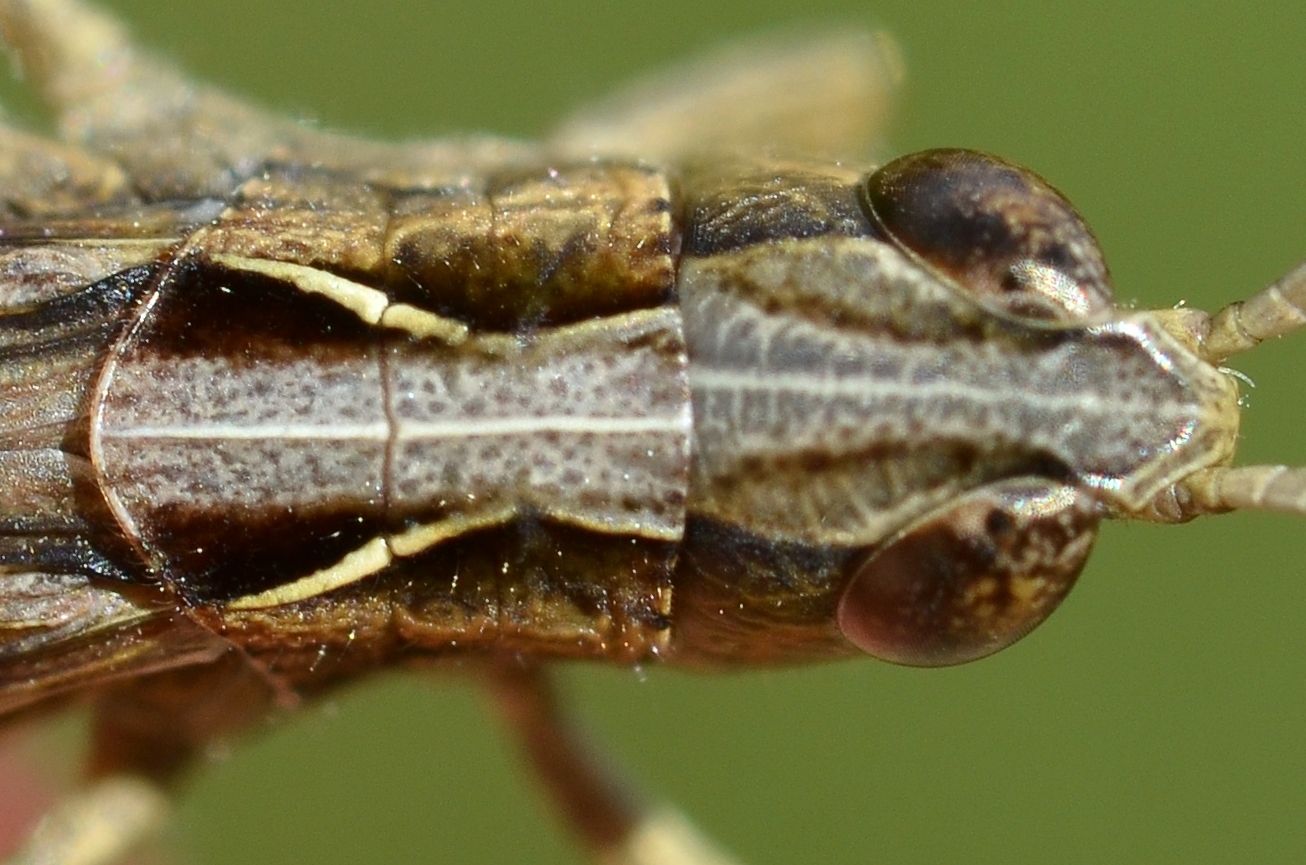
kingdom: Animalia
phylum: Arthropoda
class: Insecta
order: Orthoptera
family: Acrididae
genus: Chorthippus
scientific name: Chorthippus vagans
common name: Heath grasshopper
